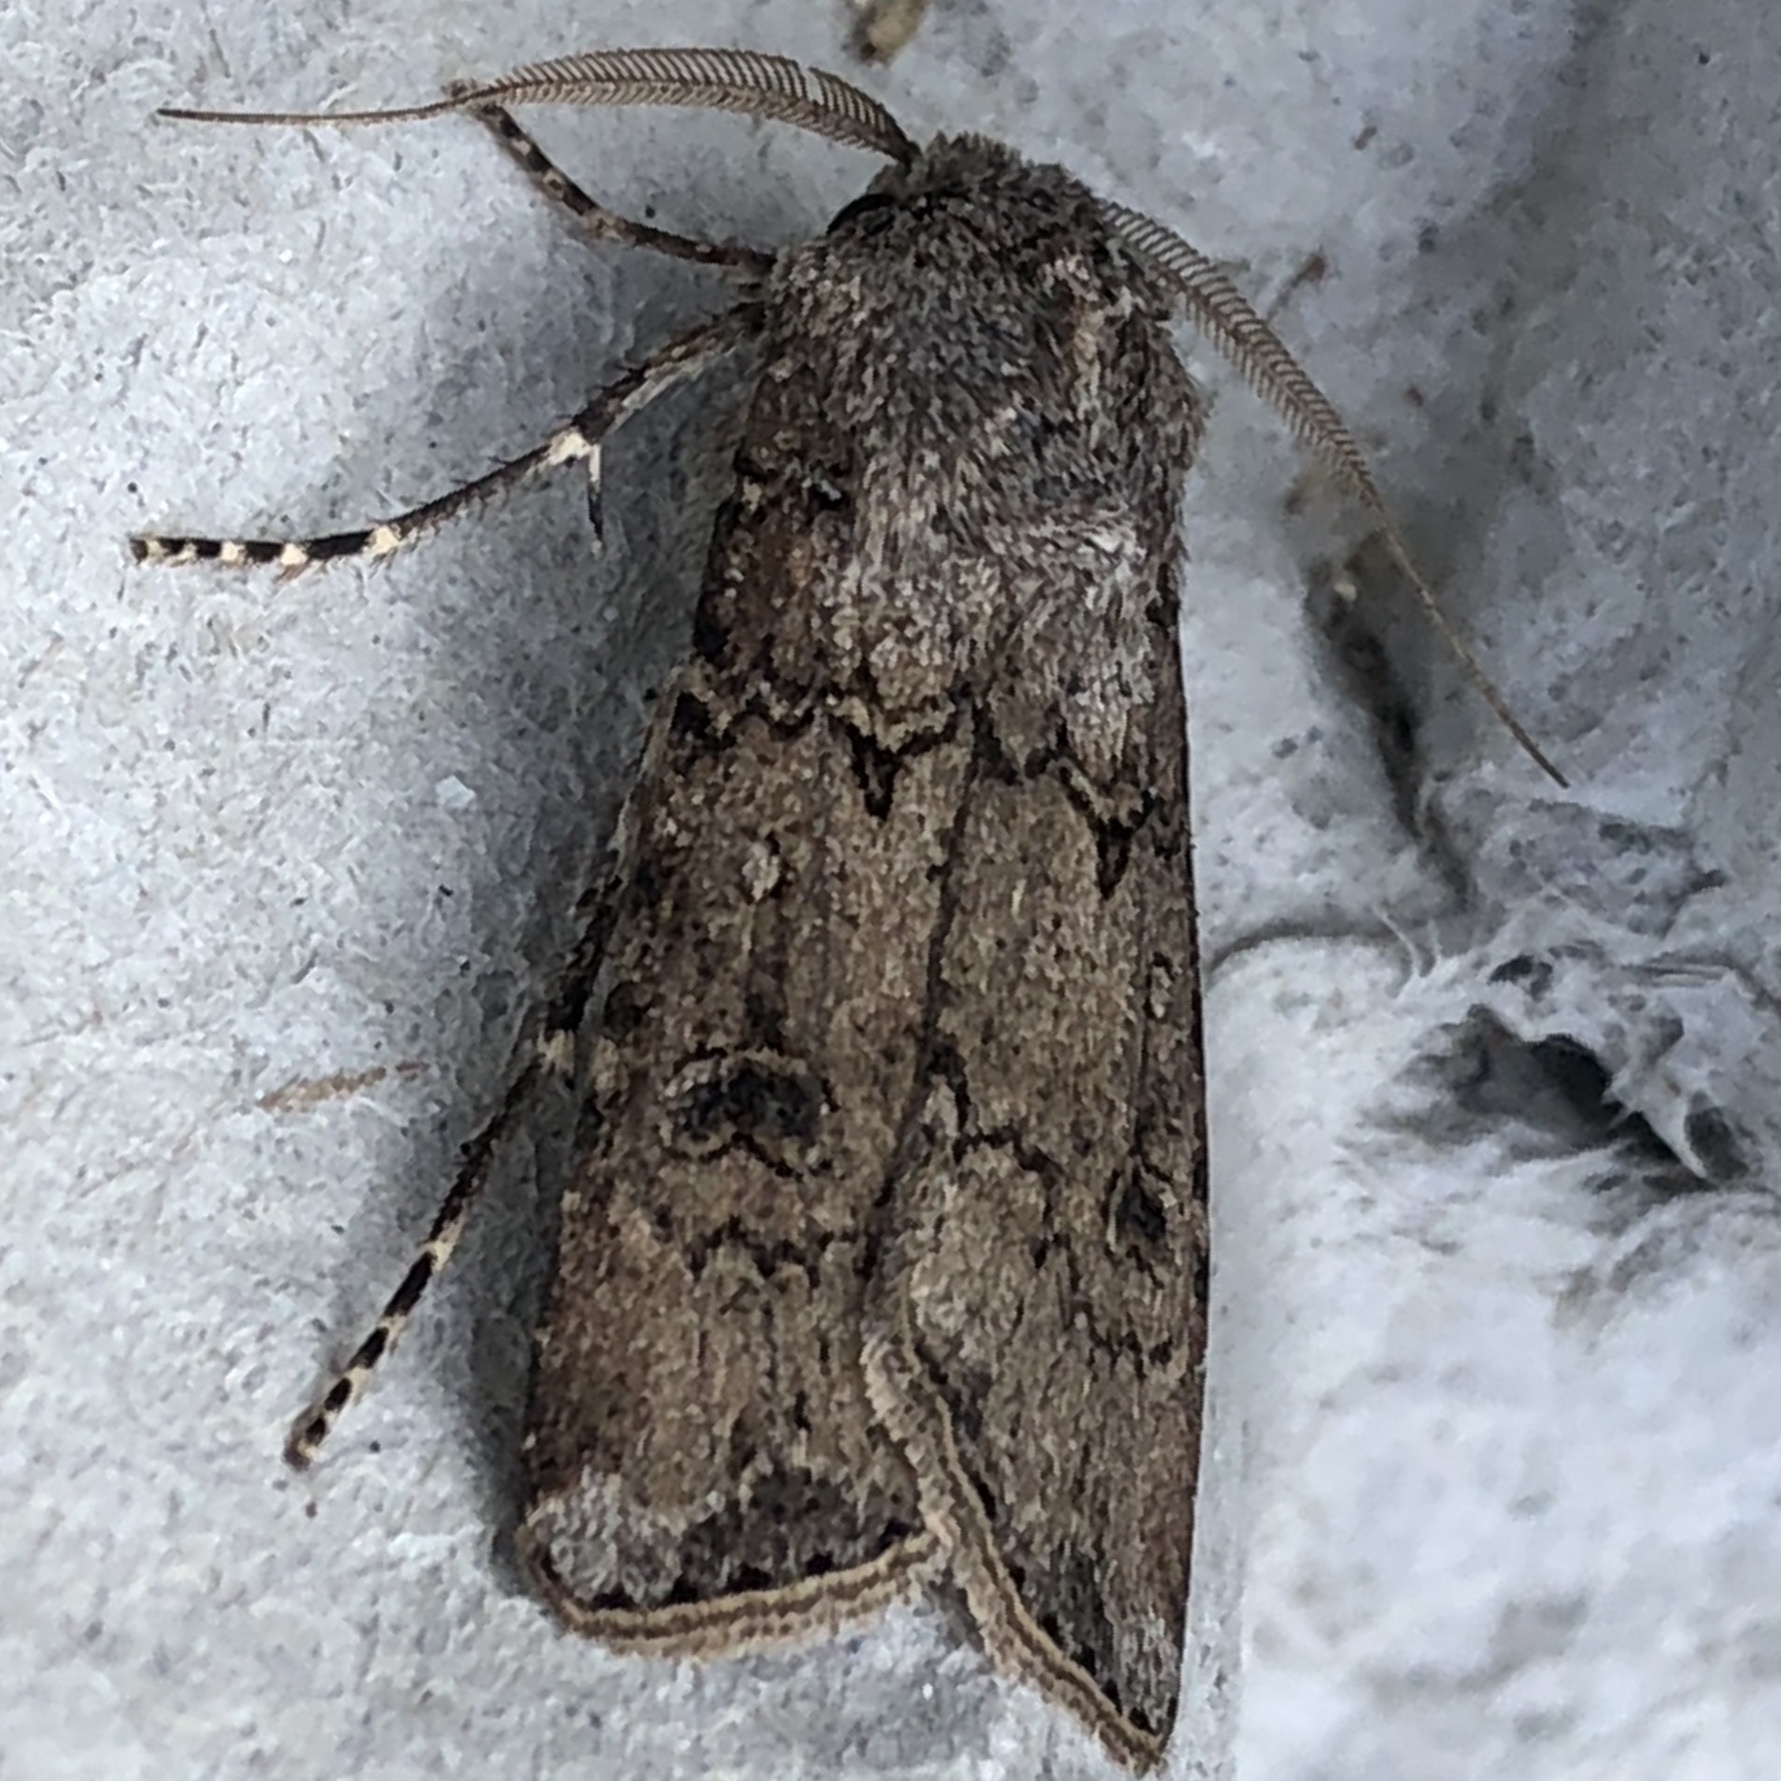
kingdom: Animalia
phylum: Arthropoda
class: Insecta
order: Lepidoptera
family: Noctuidae
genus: Agrotis
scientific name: Agrotis segetum
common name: Turnip moth
